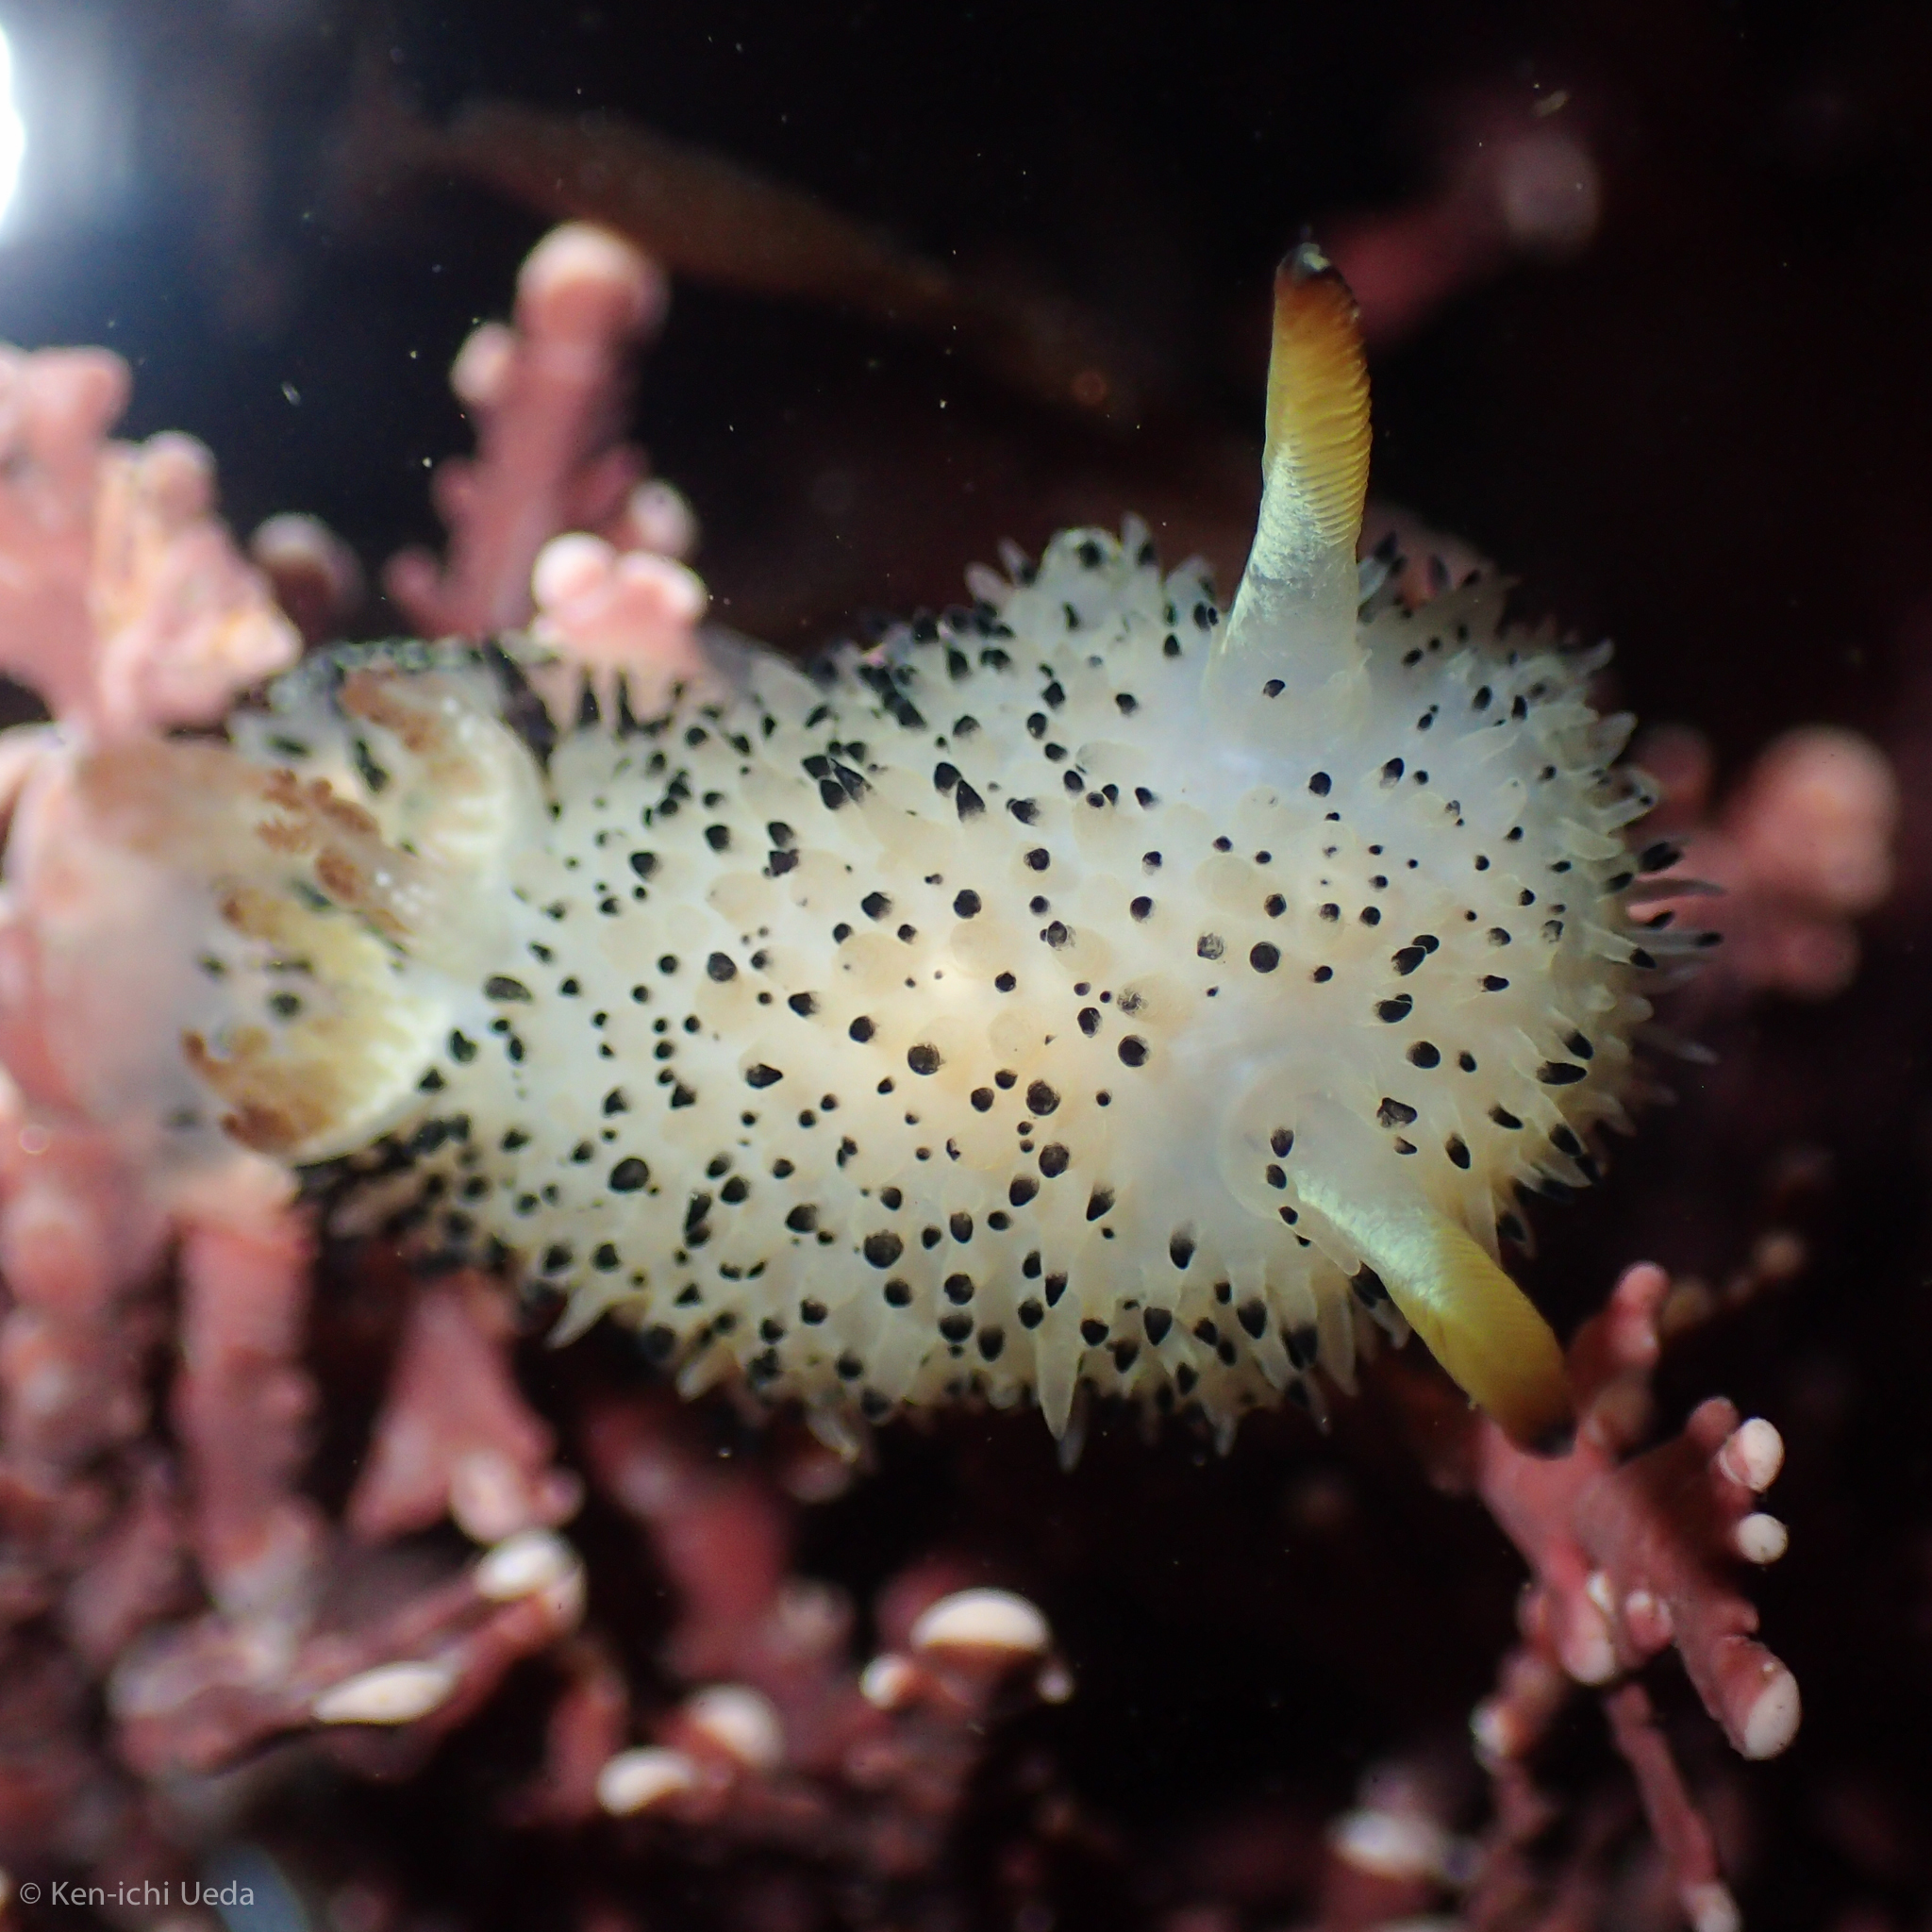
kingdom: Animalia
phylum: Mollusca
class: Gastropoda
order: Nudibranchia
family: Onchidorididae
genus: Acanthodoris
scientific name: Acanthodoris rhodoceras
